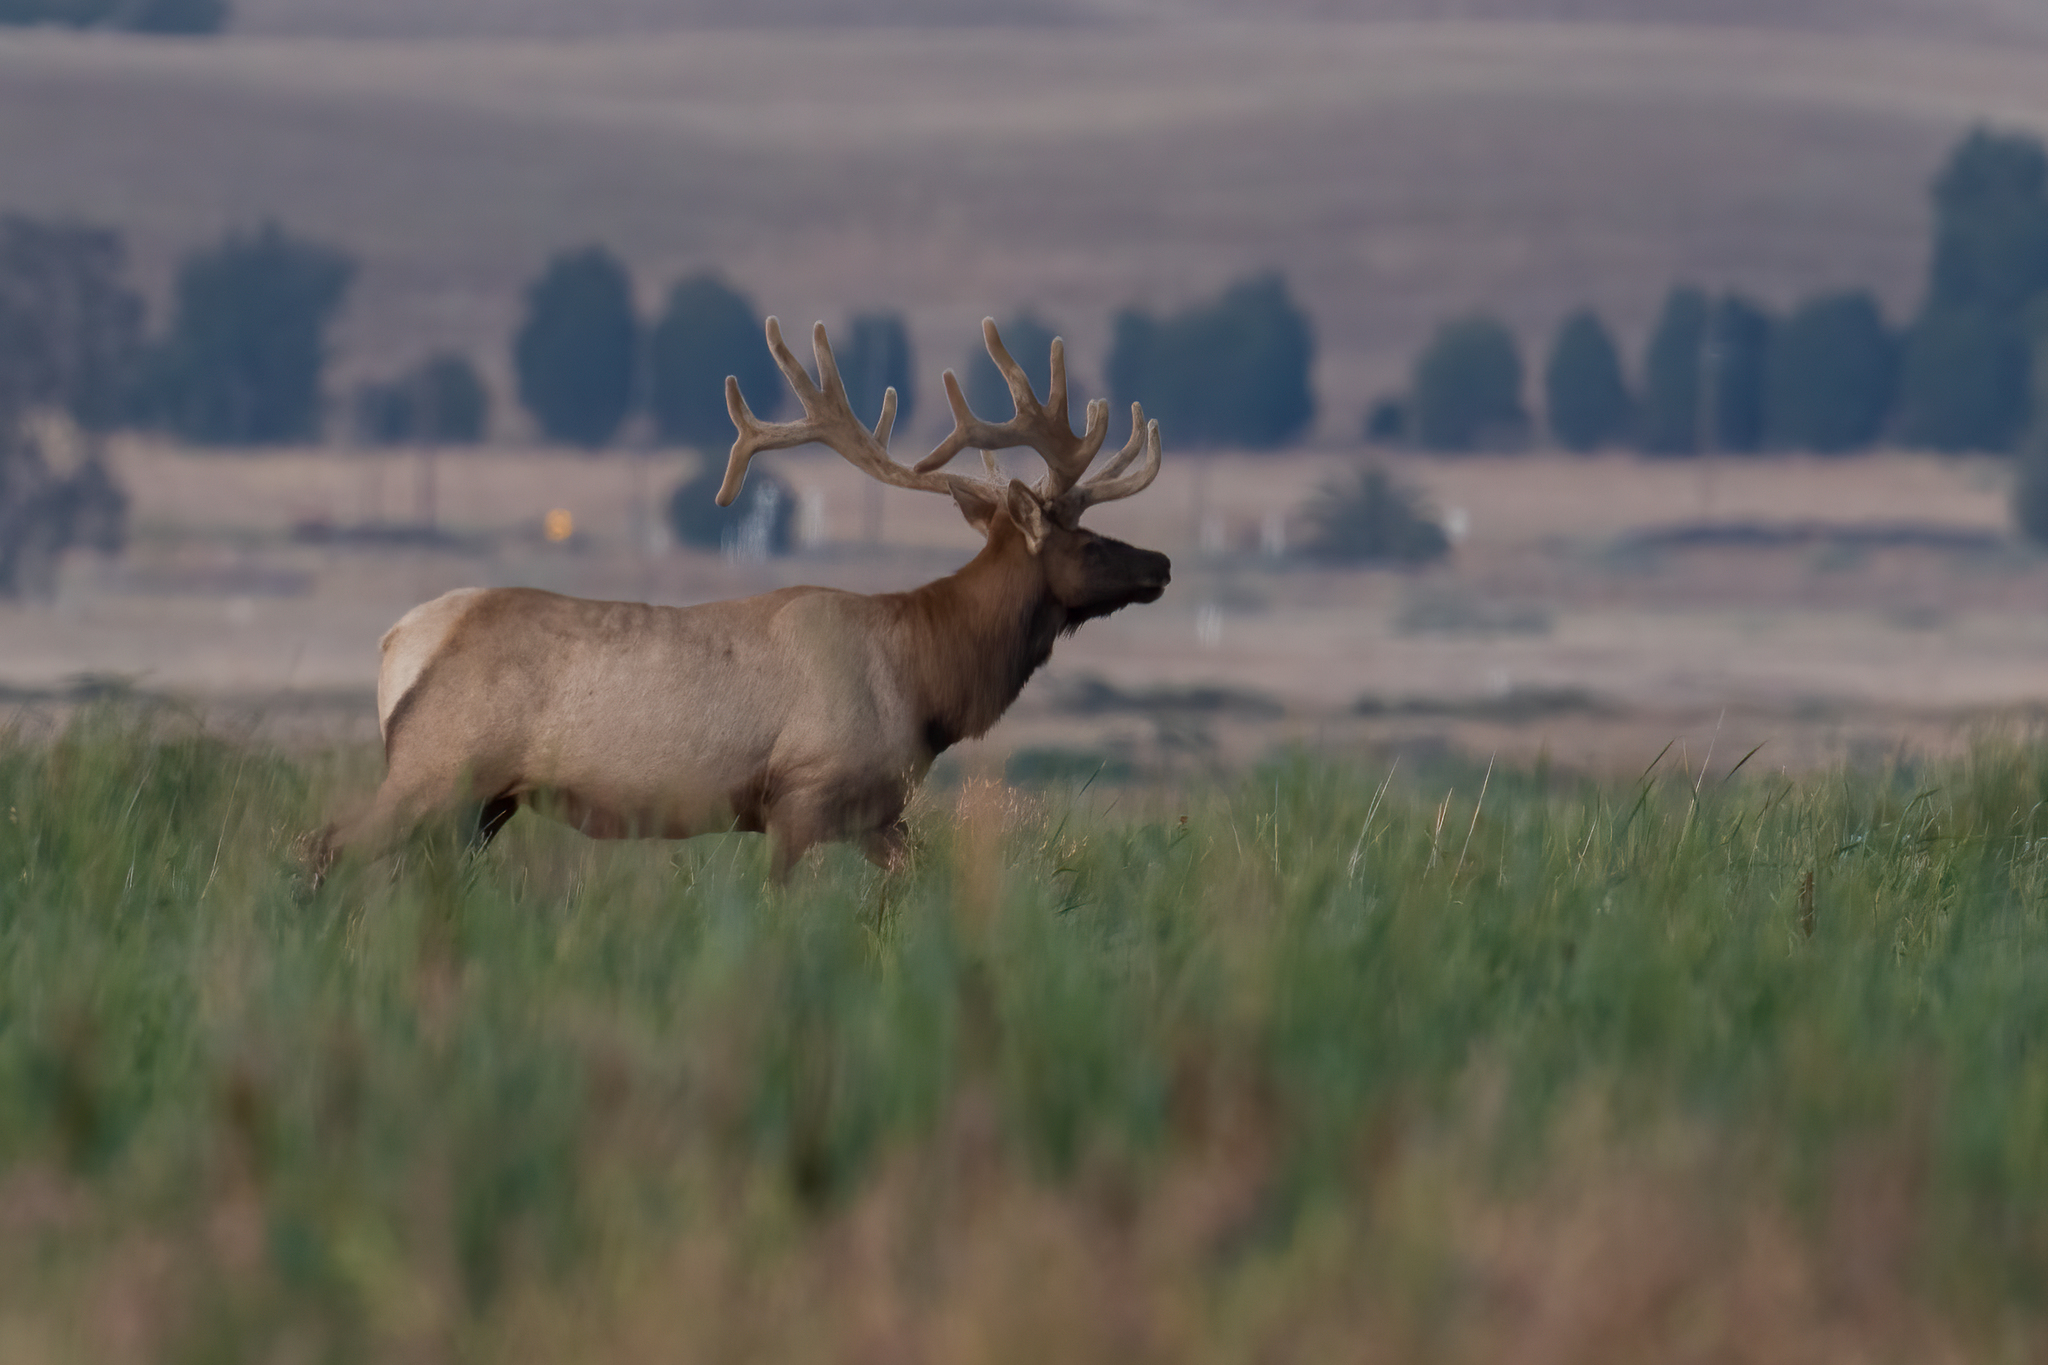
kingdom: Animalia
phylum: Chordata
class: Mammalia
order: Artiodactyla
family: Cervidae
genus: Cervus
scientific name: Cervus elaphus
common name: Red deer
